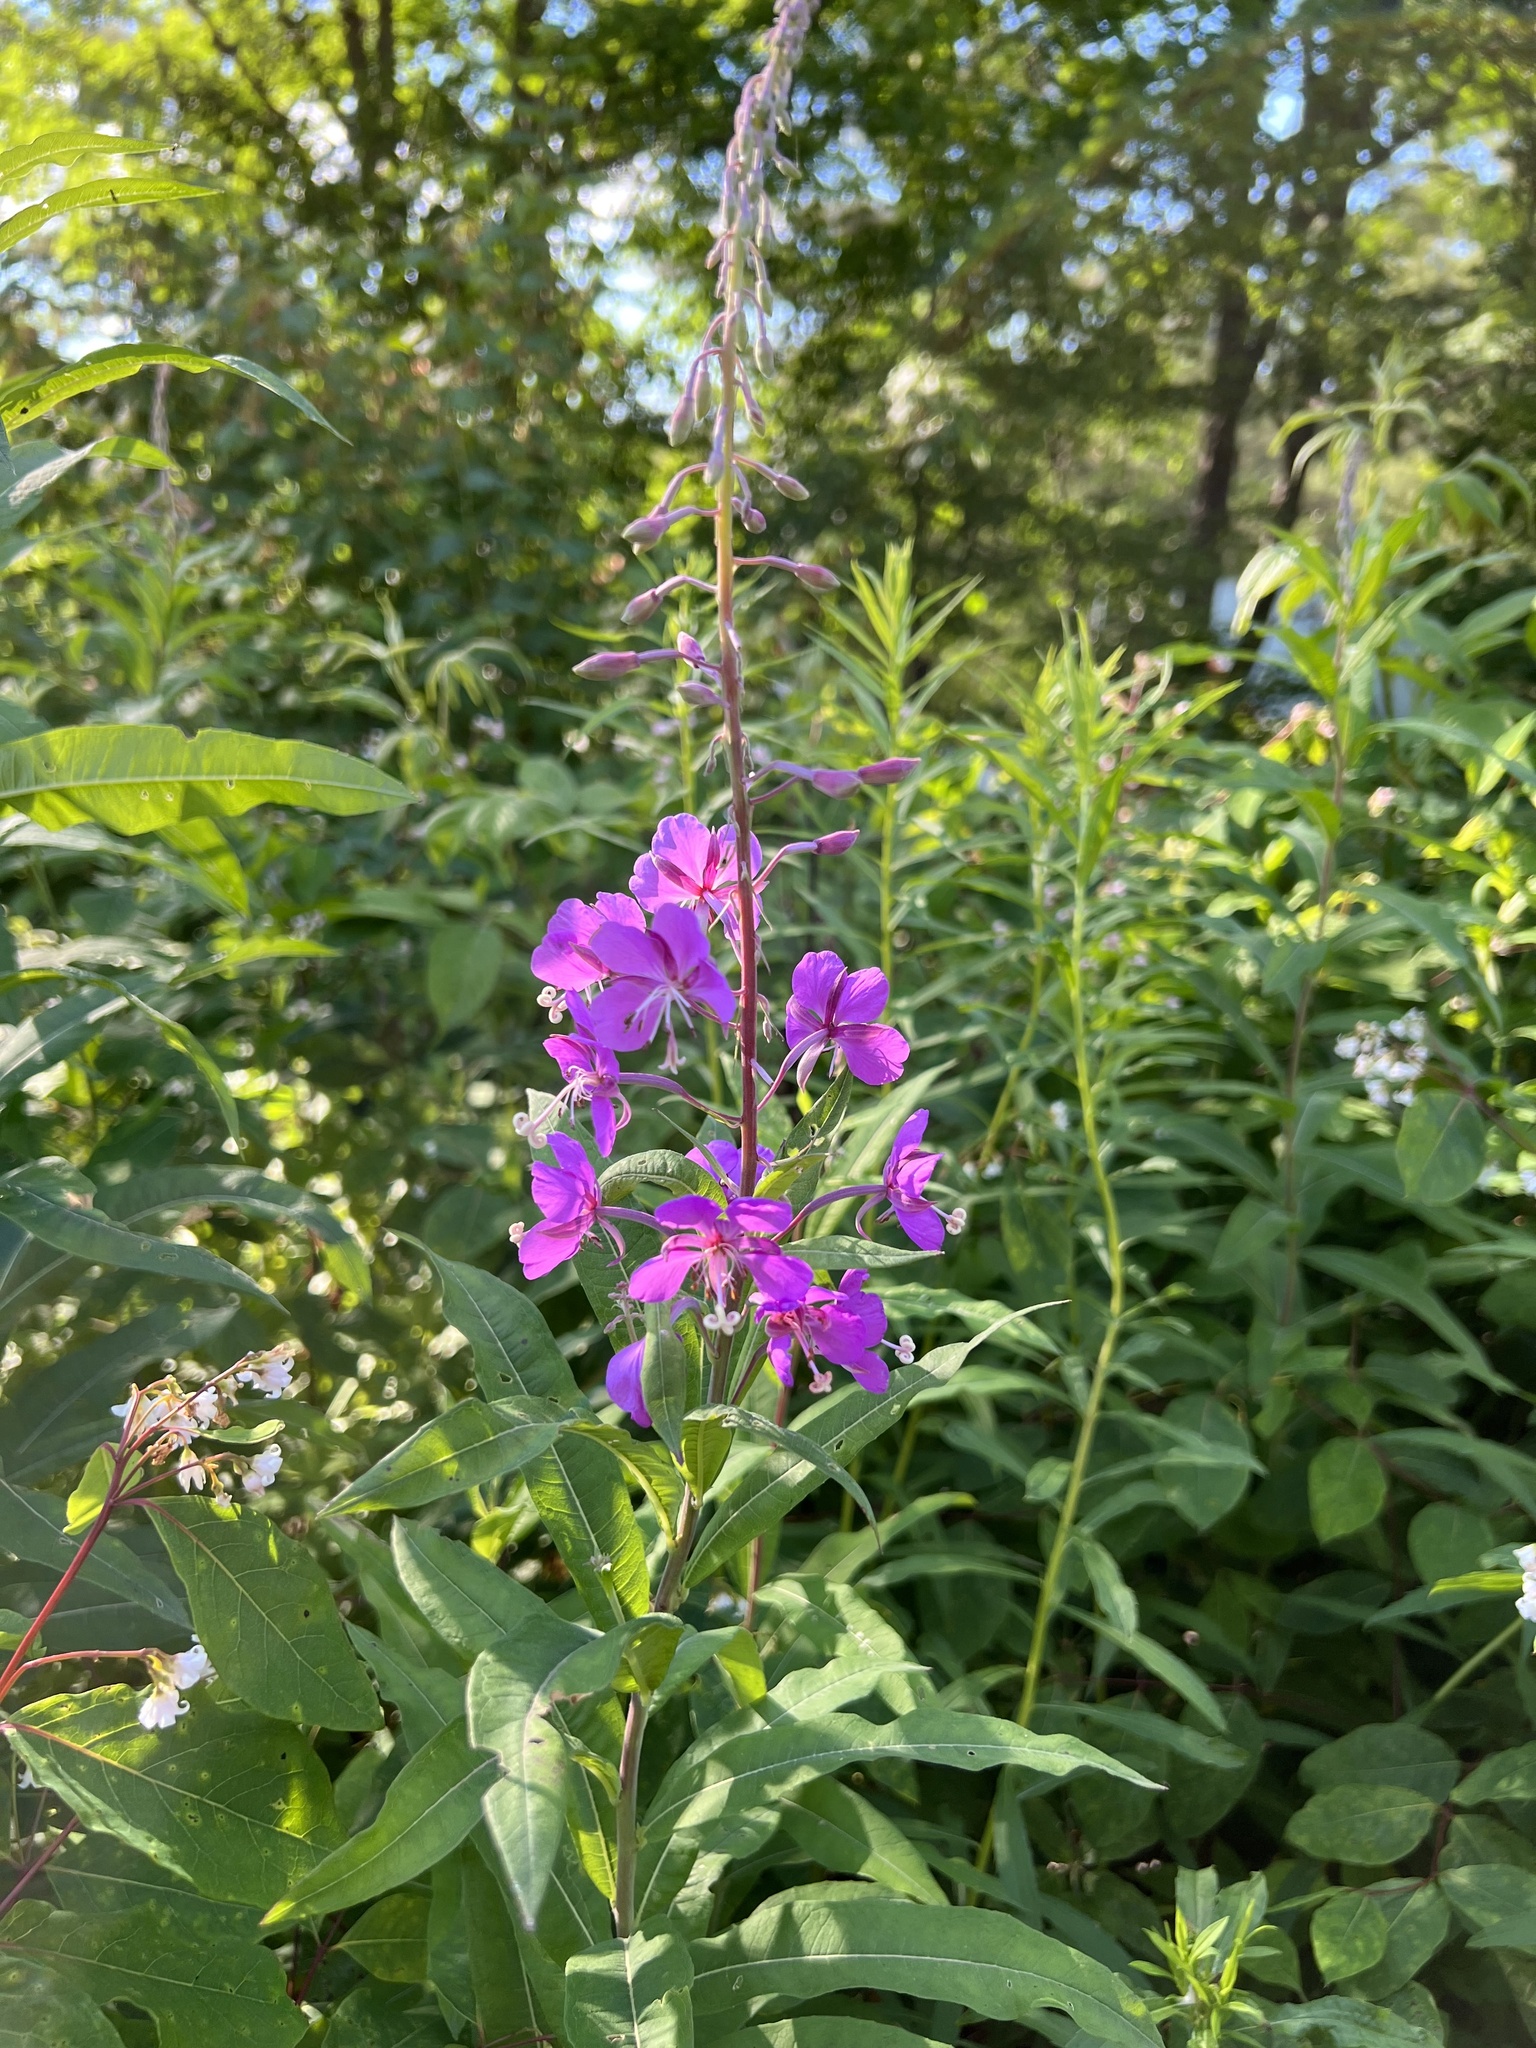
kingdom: Plantae
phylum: Tracheophyta
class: Magnoliopsida
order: Myrtales
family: Onagraceae
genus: Chamaenerion
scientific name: Chamaenerion angustifolium
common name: Fireweed
